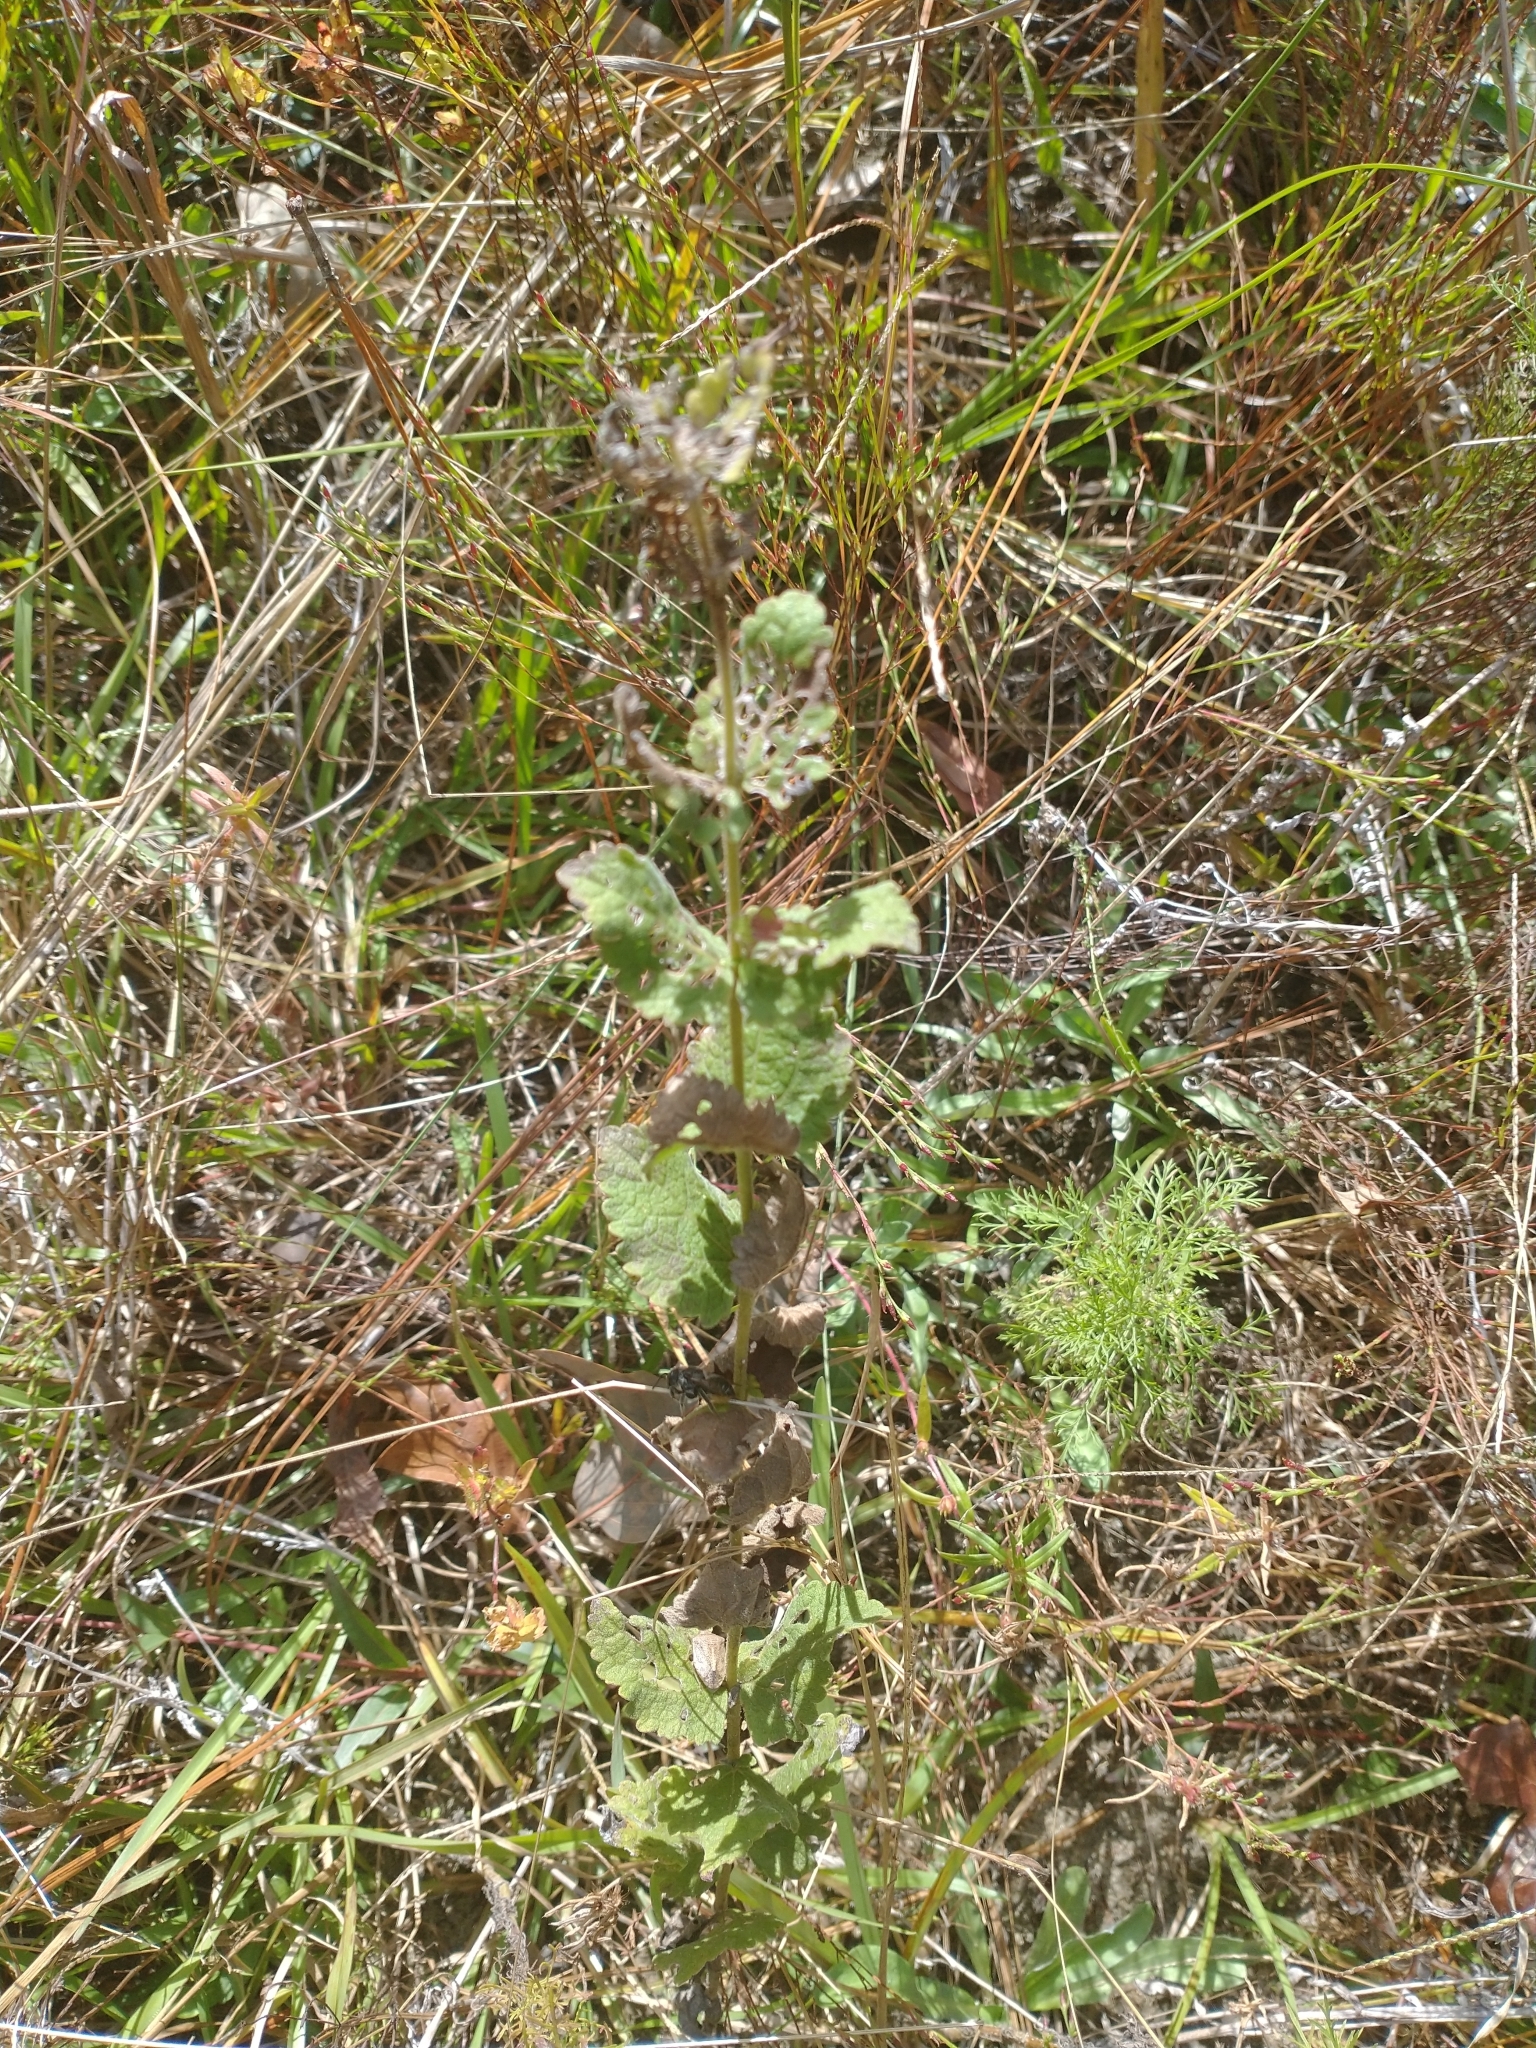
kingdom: Plantae
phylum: Tracheophyta
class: Magnoliopsida
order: Asterales
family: Asteraceae
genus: Eupatorium
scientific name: Eupatorium rotundifolium
